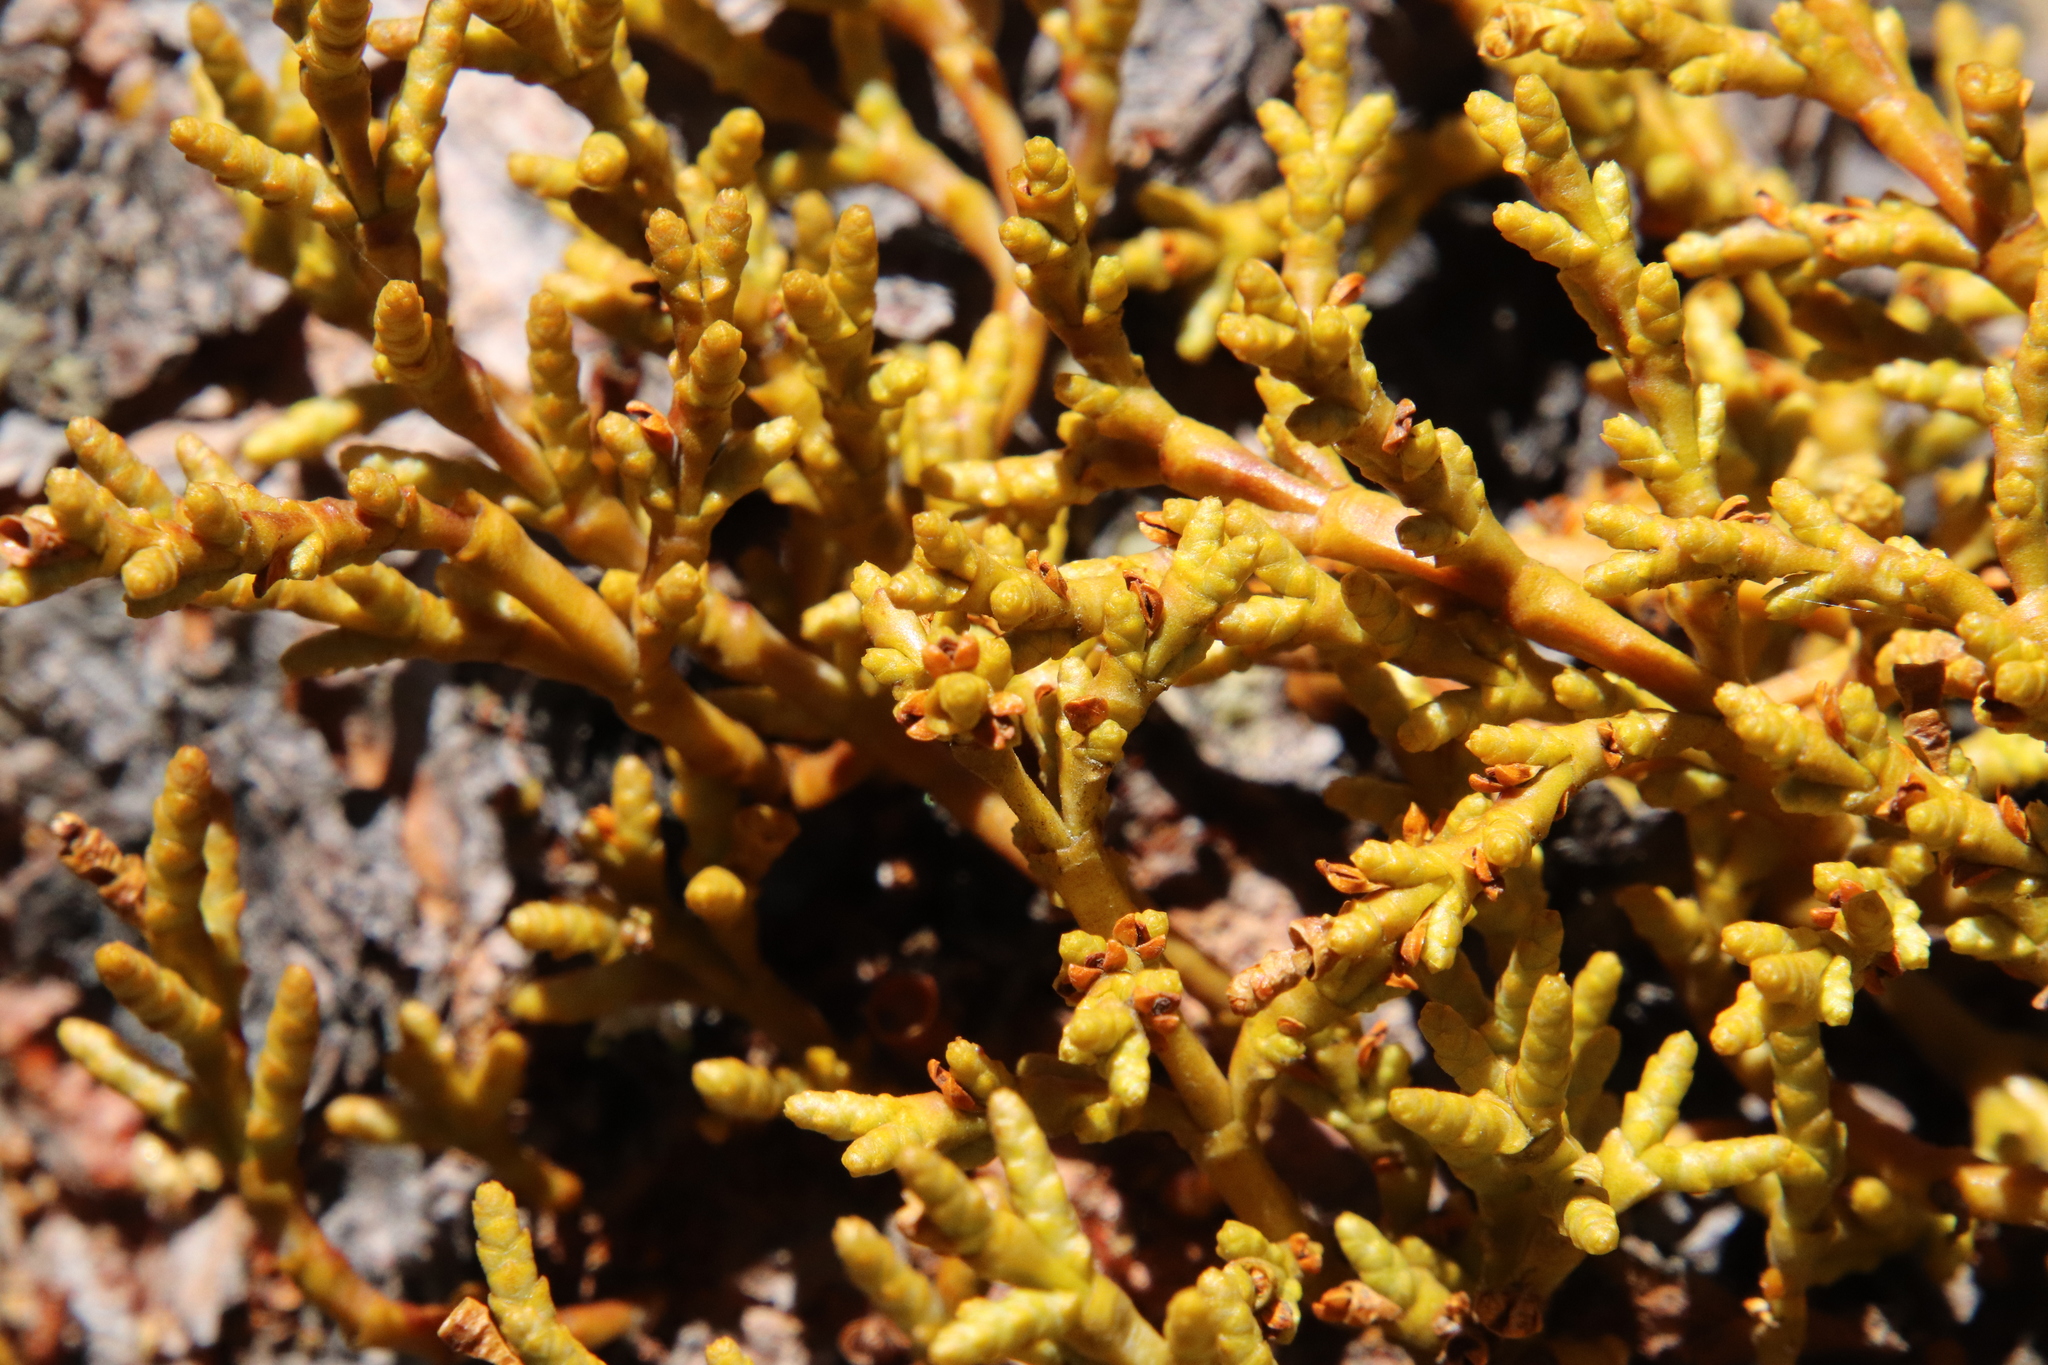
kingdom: Plantae
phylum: Tracheophyta
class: Magnoliopsida
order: Santalales
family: Viscaceae
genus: Arceuthobium
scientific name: Arceuthobium campylopodum
